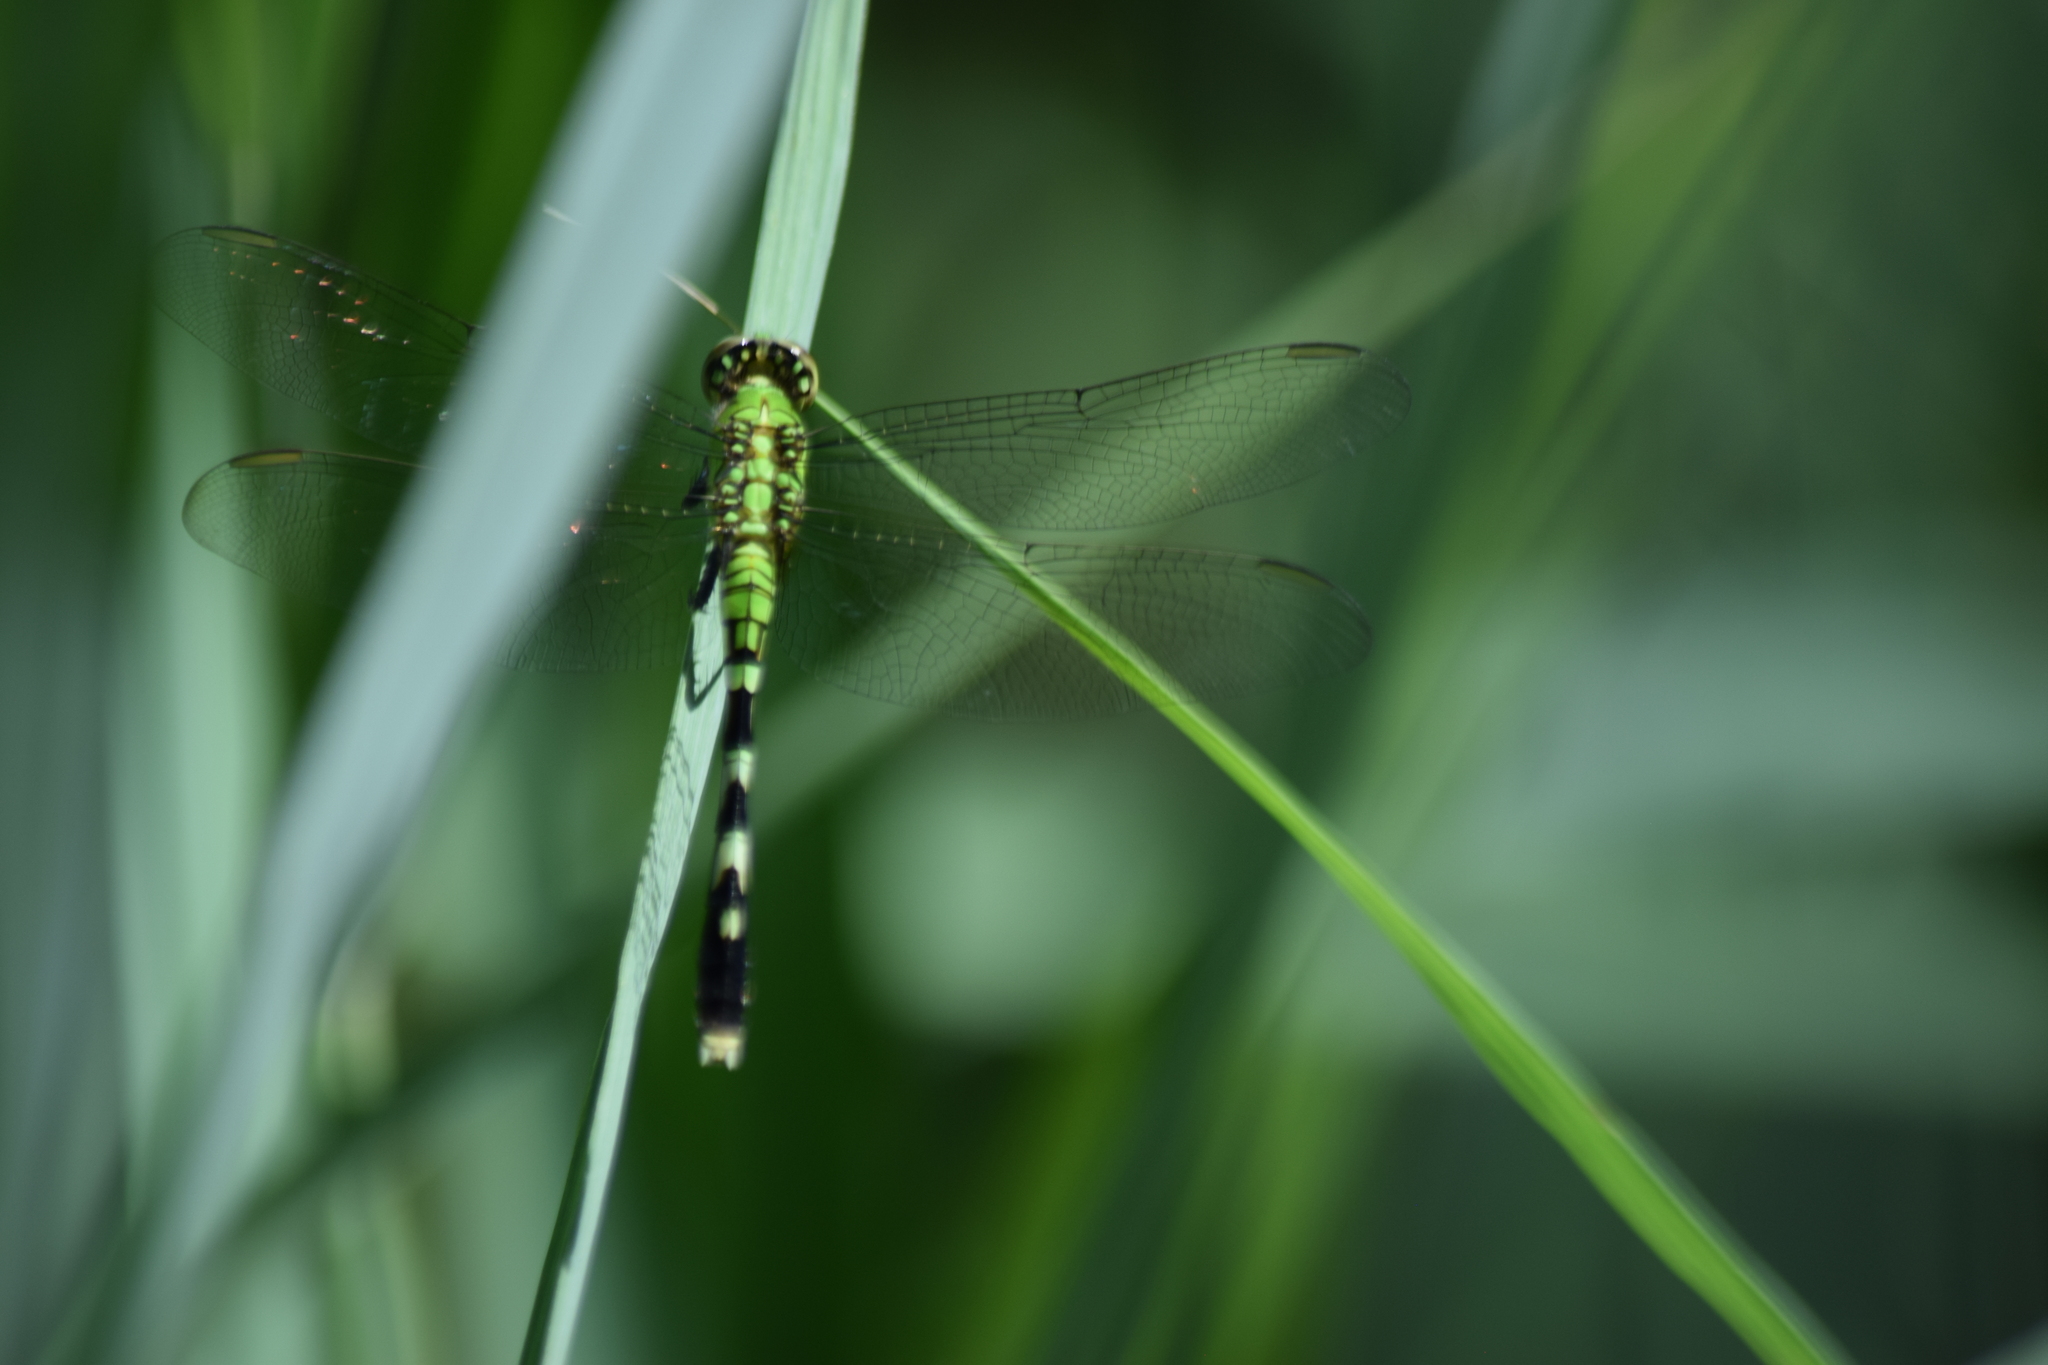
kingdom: Animalia
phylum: Arthropoda
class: Insecta
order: Odonata
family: Libellulidae
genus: Erythemis
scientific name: Erythemis simplicicollis
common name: Eastern pondhawk
